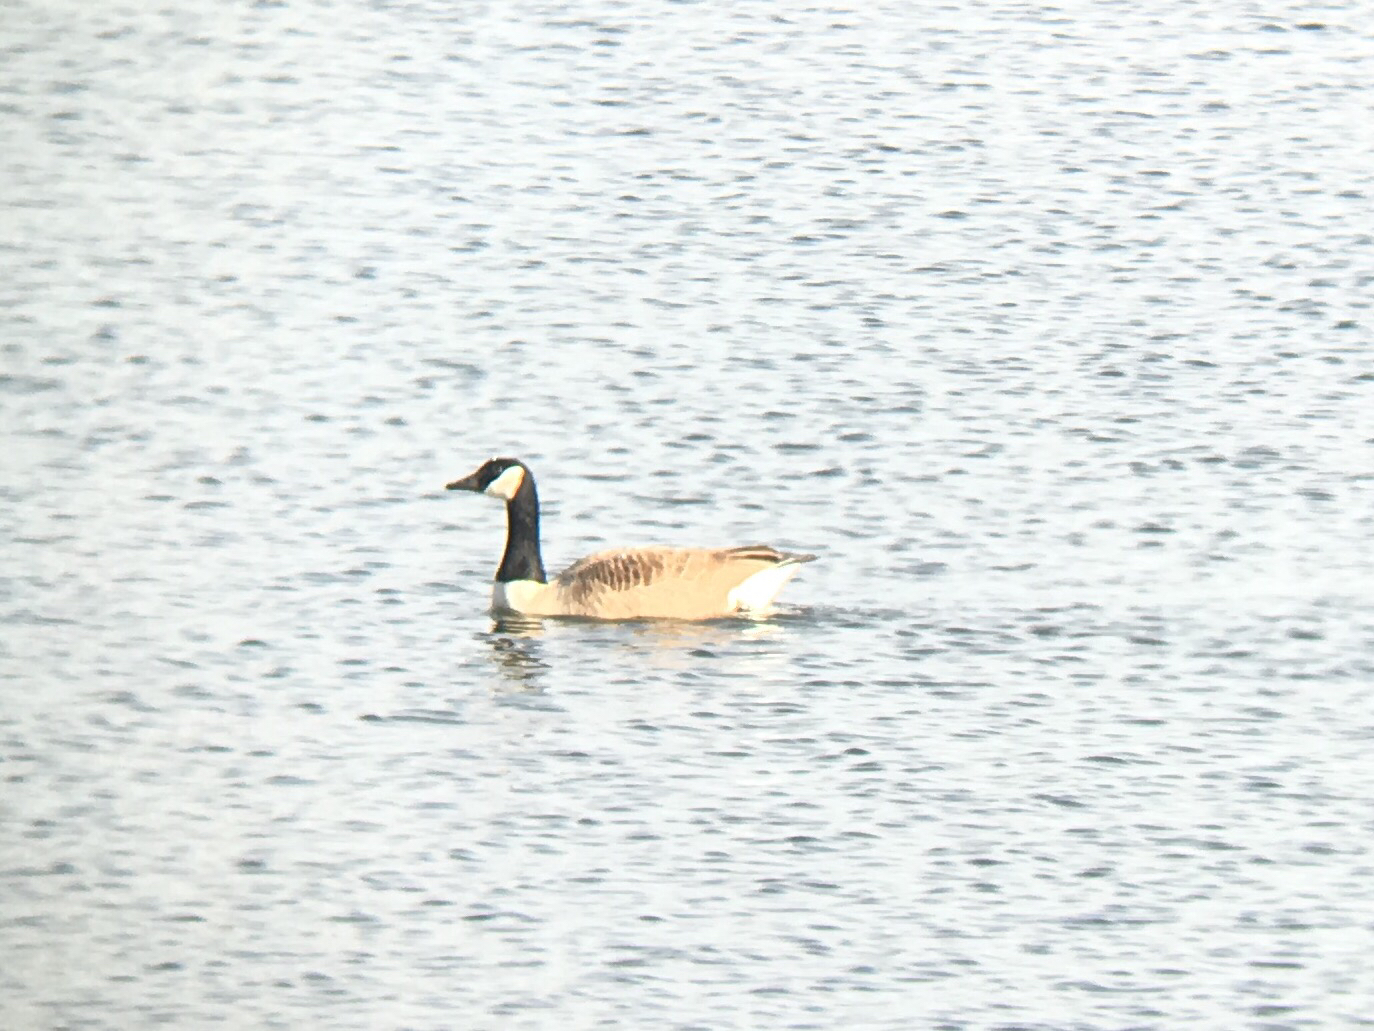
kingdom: Animalia
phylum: Chordata
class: Aves
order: Anseriformes
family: Anatidae
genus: Branta
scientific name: Branta canadensis
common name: Canada goose
